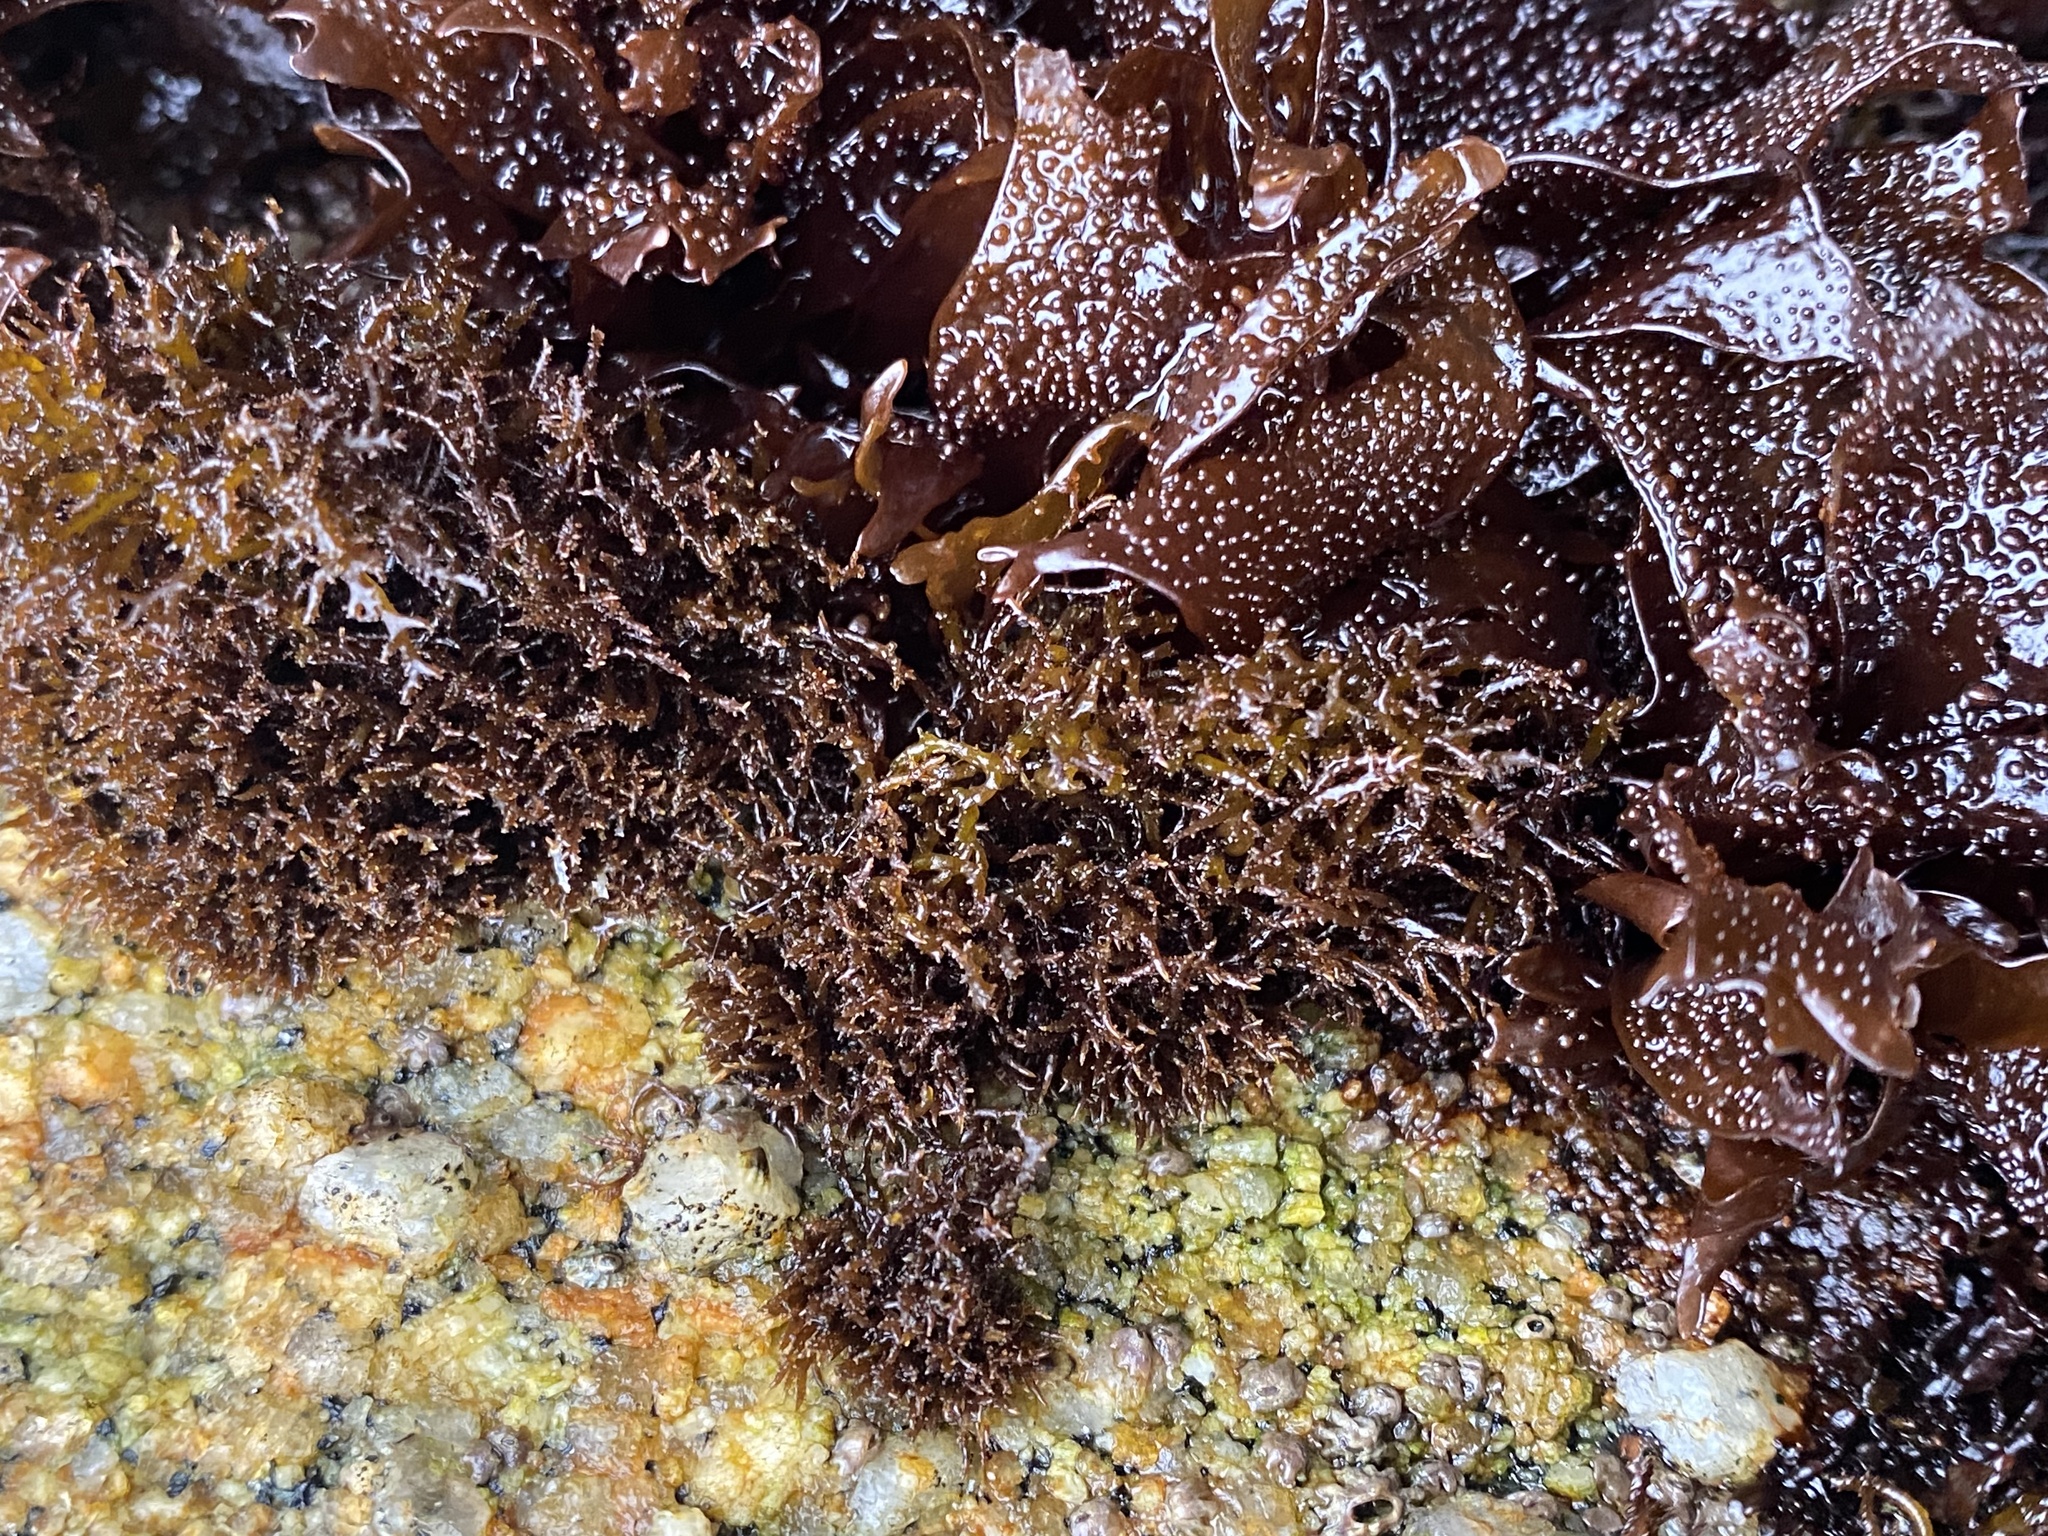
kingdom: Plantae
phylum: Rhodophyta
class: Florideophyceae
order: Gigartinales
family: Endocladiaceae
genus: Endocladia
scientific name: Endocladia muricata
